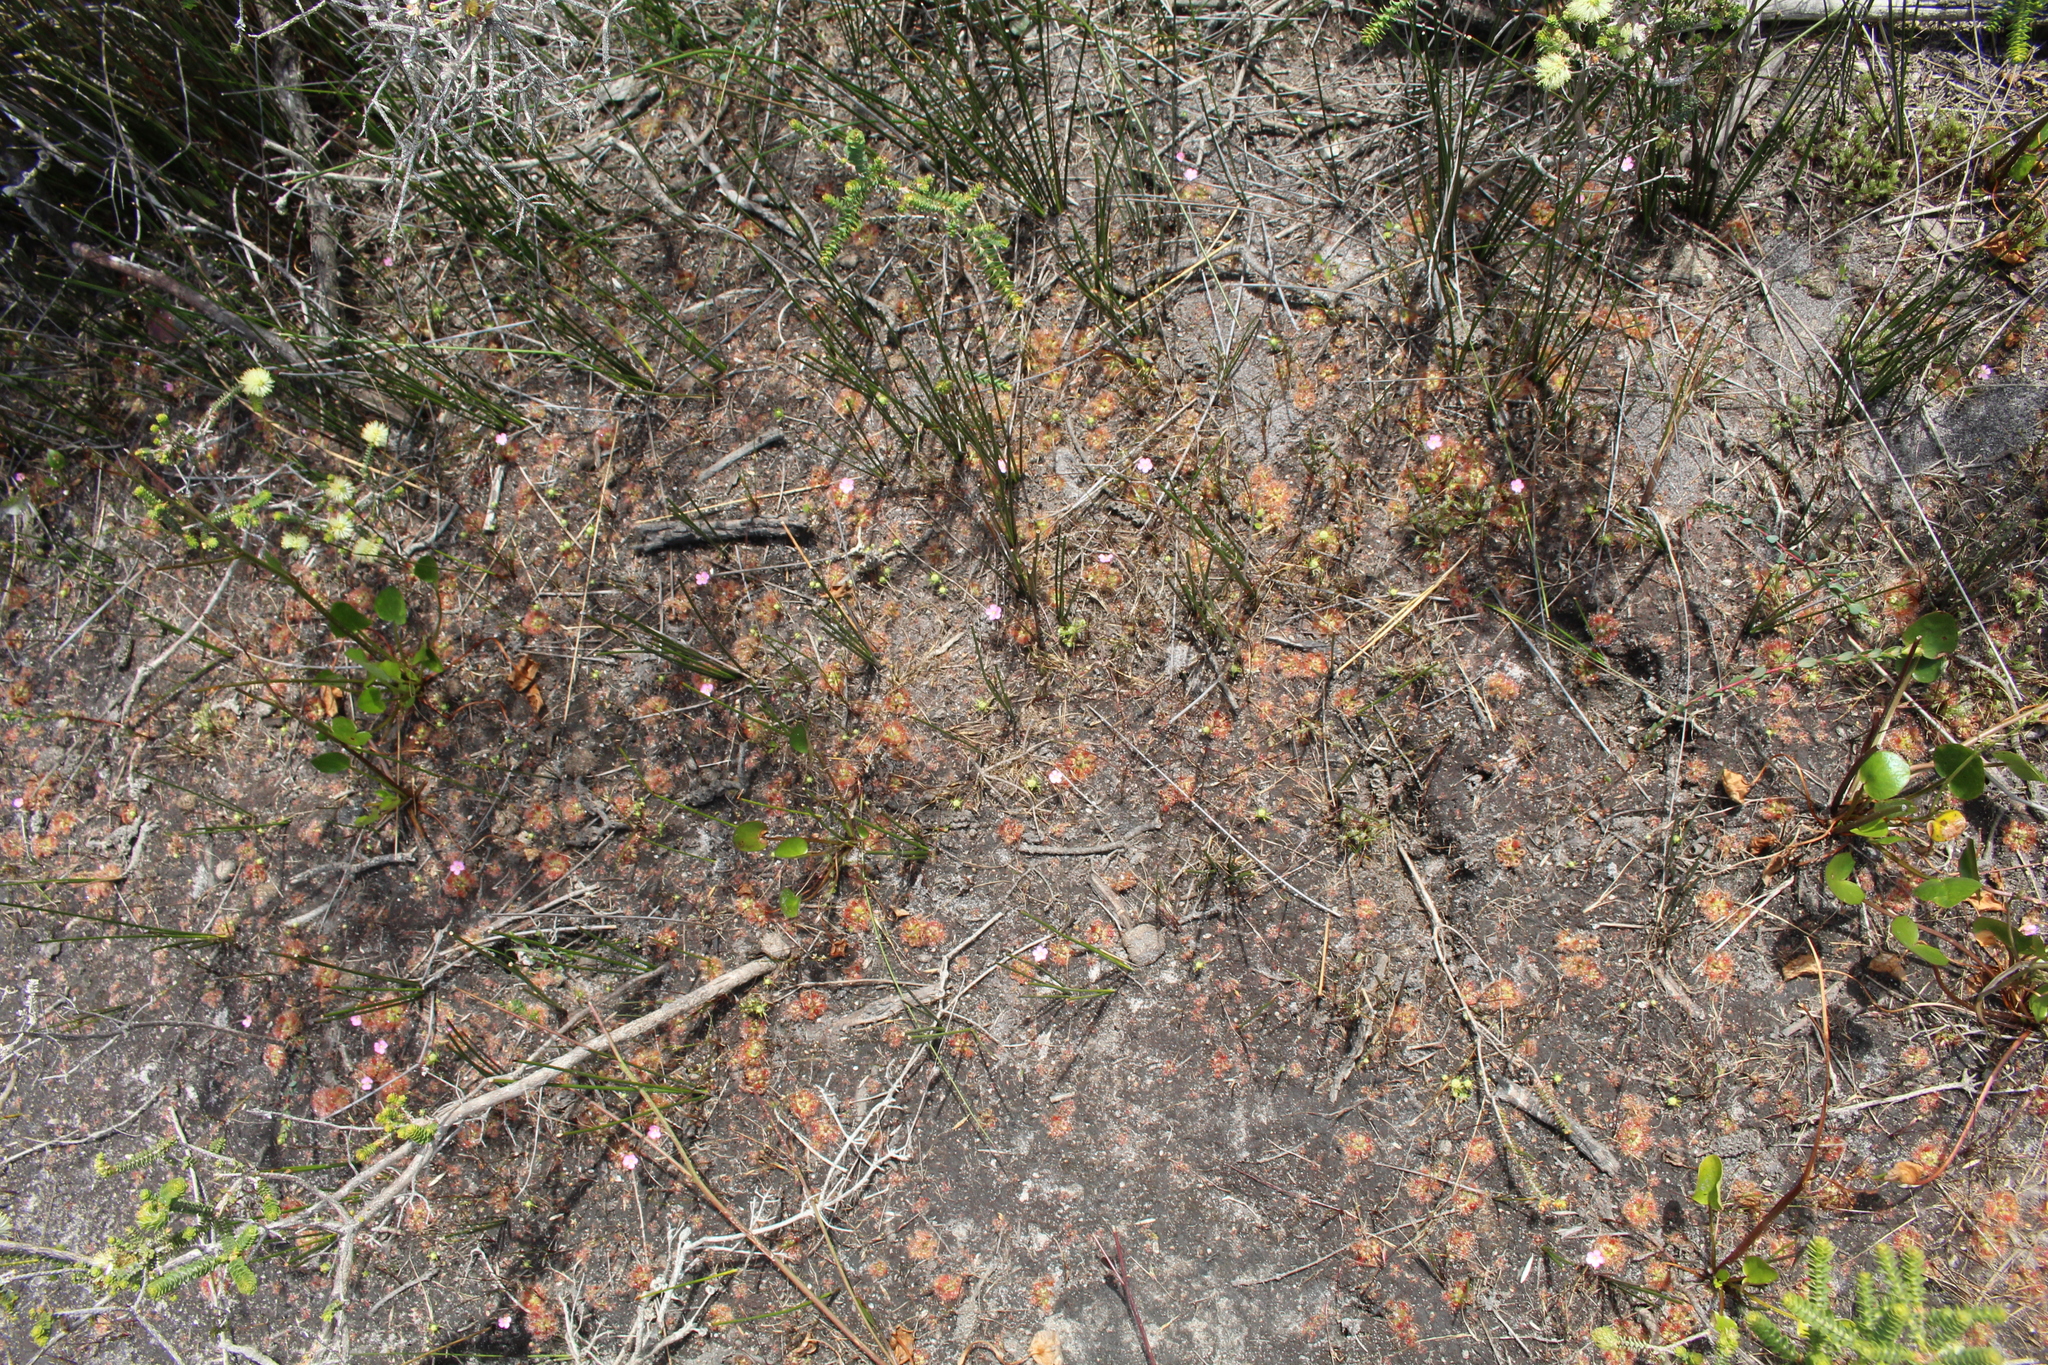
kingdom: Plantae
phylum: Tracheophyta
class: Magnoliopsida
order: Caryophyllales
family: Droseraceae
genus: Drosera
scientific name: Drosera pulchella
